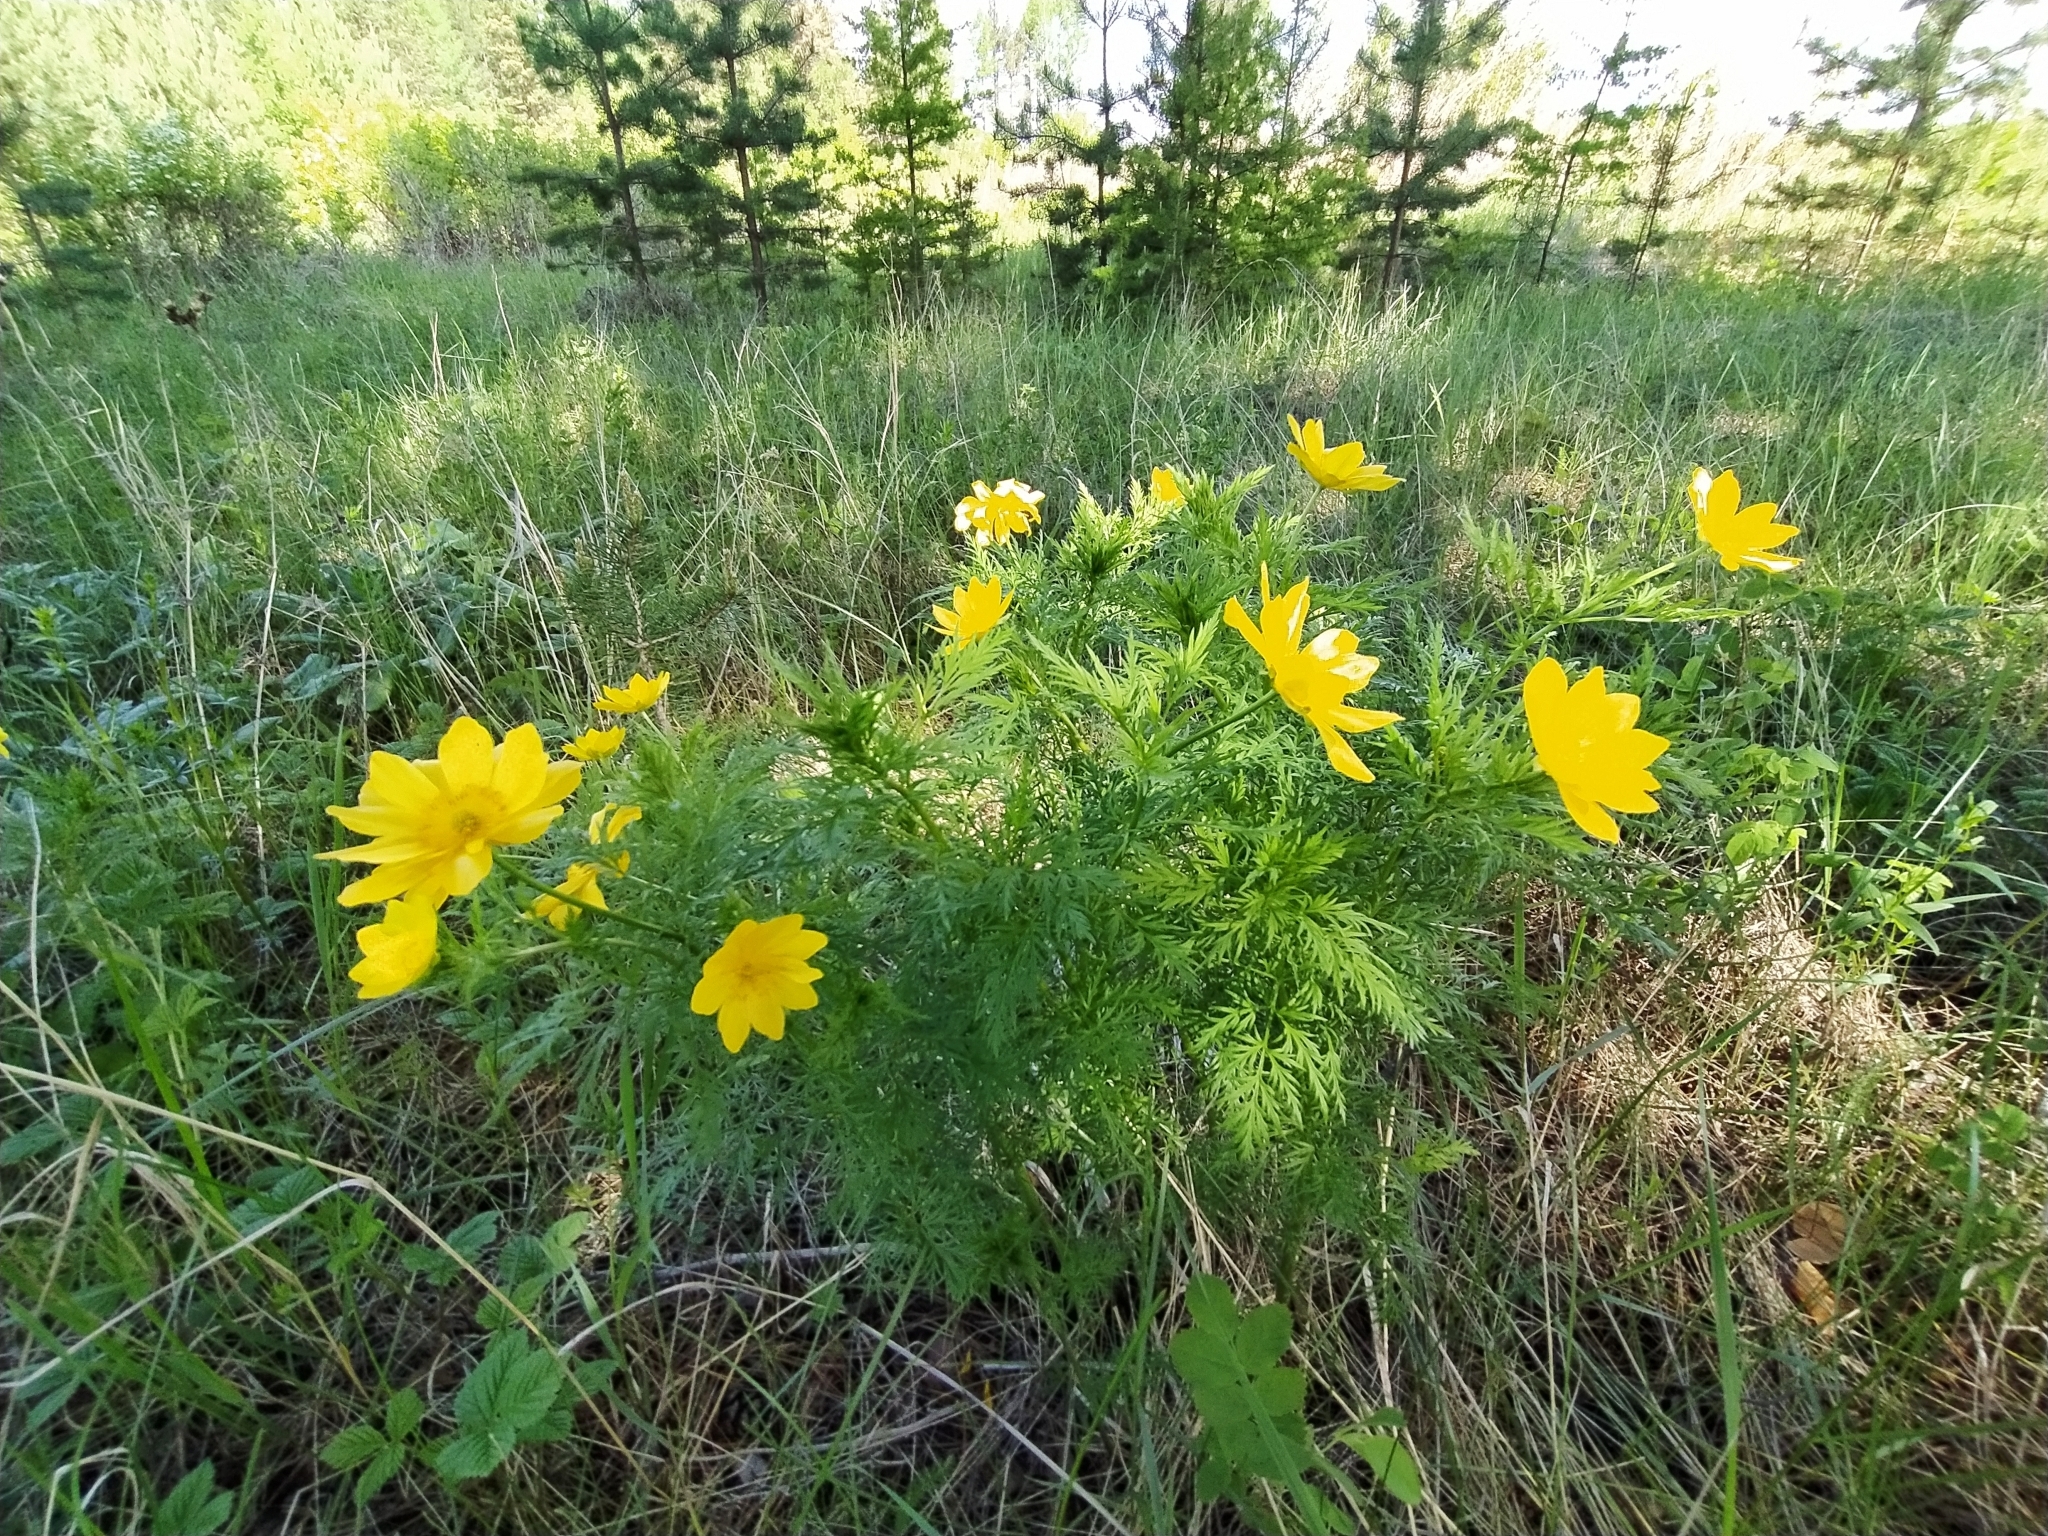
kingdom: Plantae
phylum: Tracheophyta
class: Magnoliopsida
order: Ranunculales
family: Ranunculaceae
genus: Adonis
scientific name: Adonis
